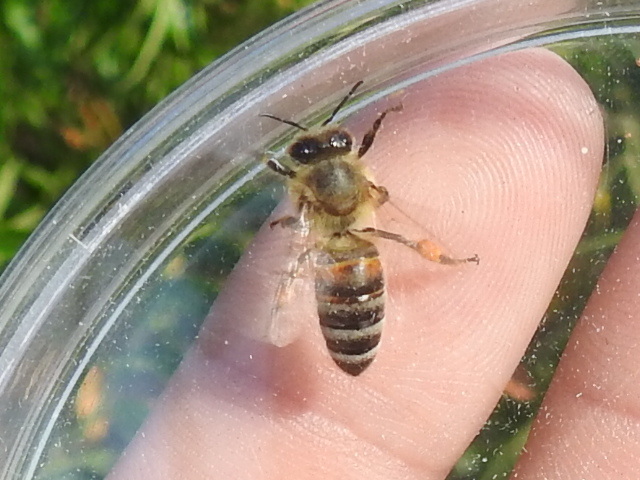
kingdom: Animalia
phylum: Arthropoda
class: Insecta
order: Hymenoptera
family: Apidae
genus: Apis
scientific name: Apis mellifera
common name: Honey bee
